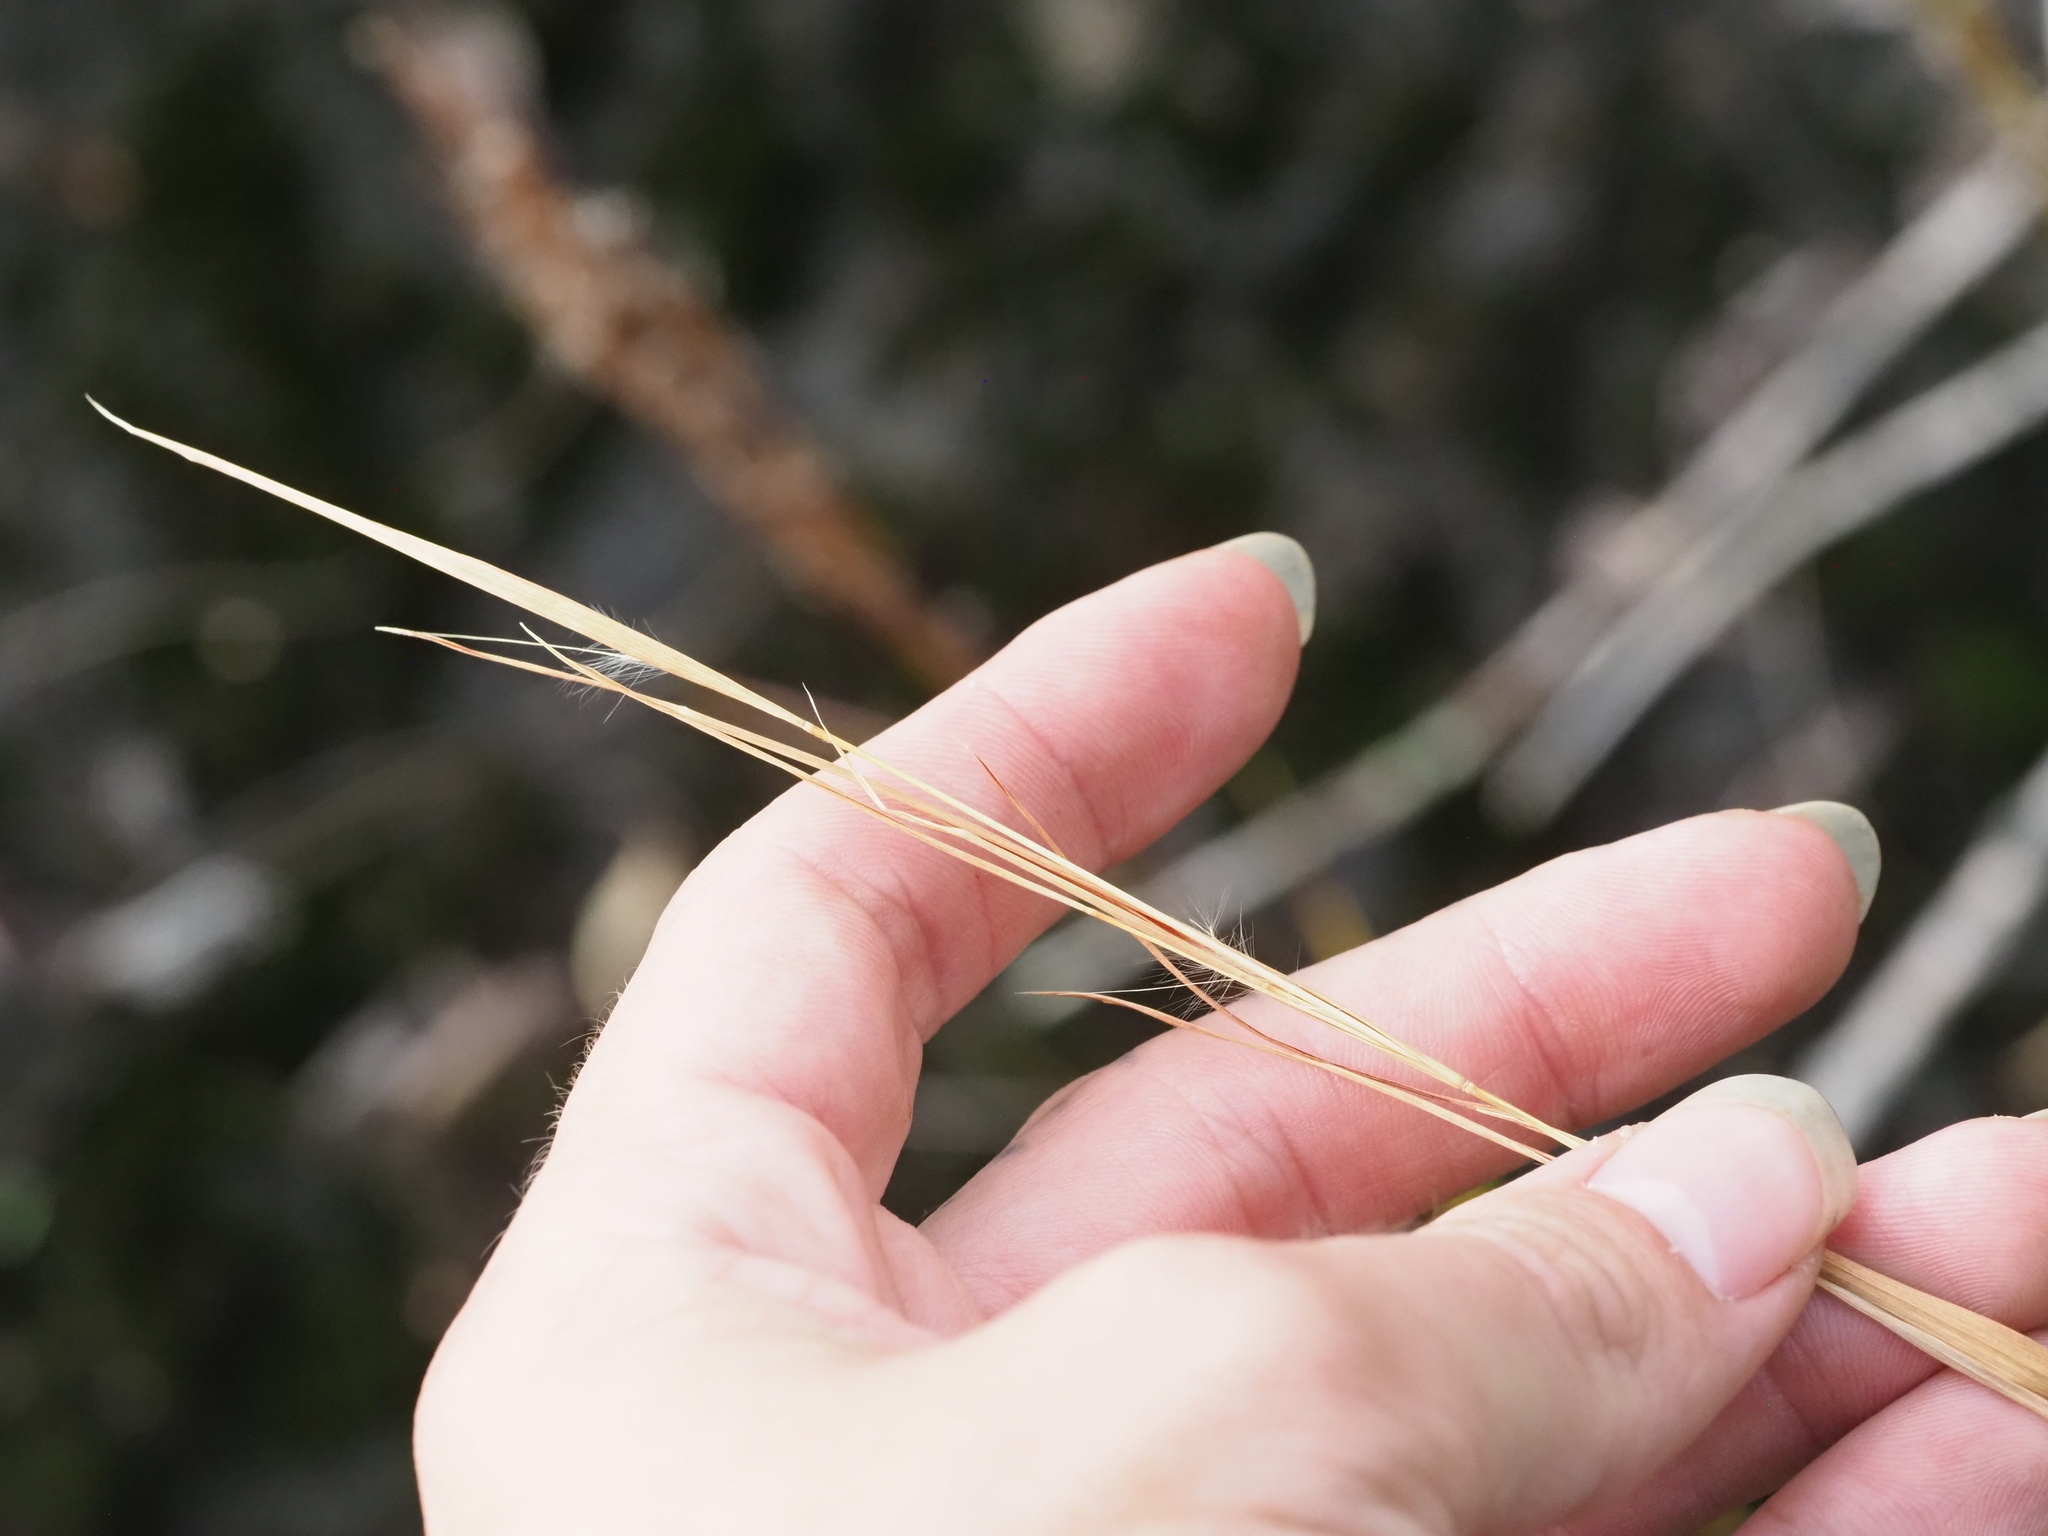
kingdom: Plantae
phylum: Tracheophyta
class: Liliopsida
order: Poales
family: Poaceae
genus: Andropogon
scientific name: Andropogon virginicus
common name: Broomsedge bluestem
